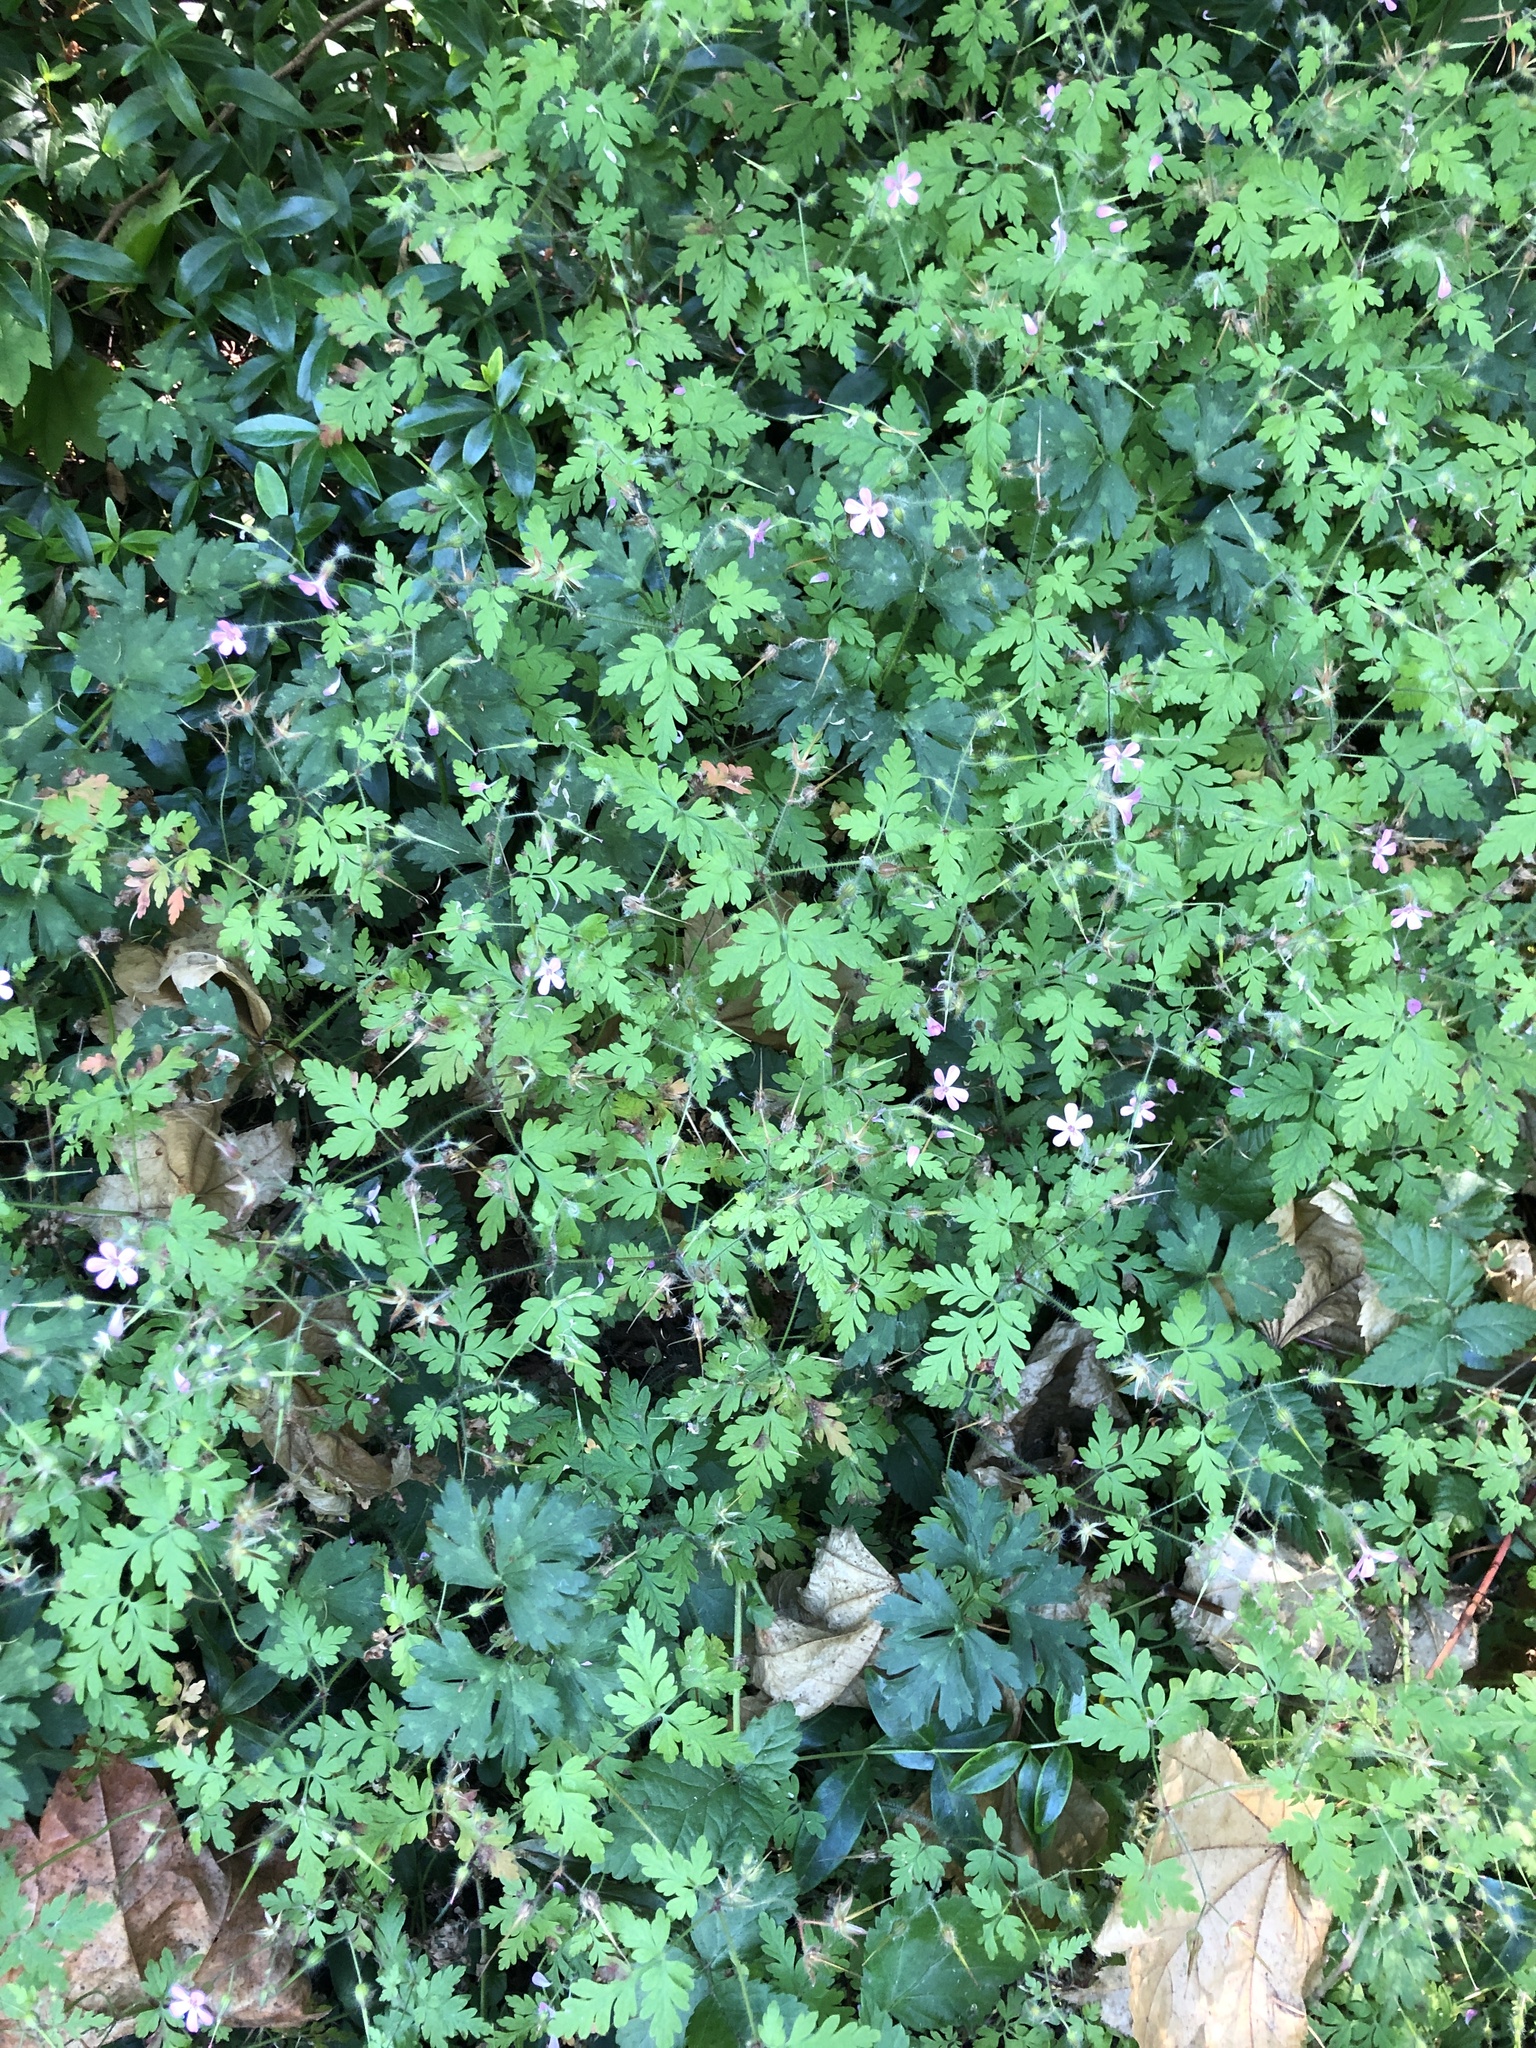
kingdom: Plantae
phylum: Tracheophyta
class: Magnoliopsida
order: Geraniales
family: Geraniaceae
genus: Geranium
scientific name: Geranium robertianum
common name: Herb-robert
